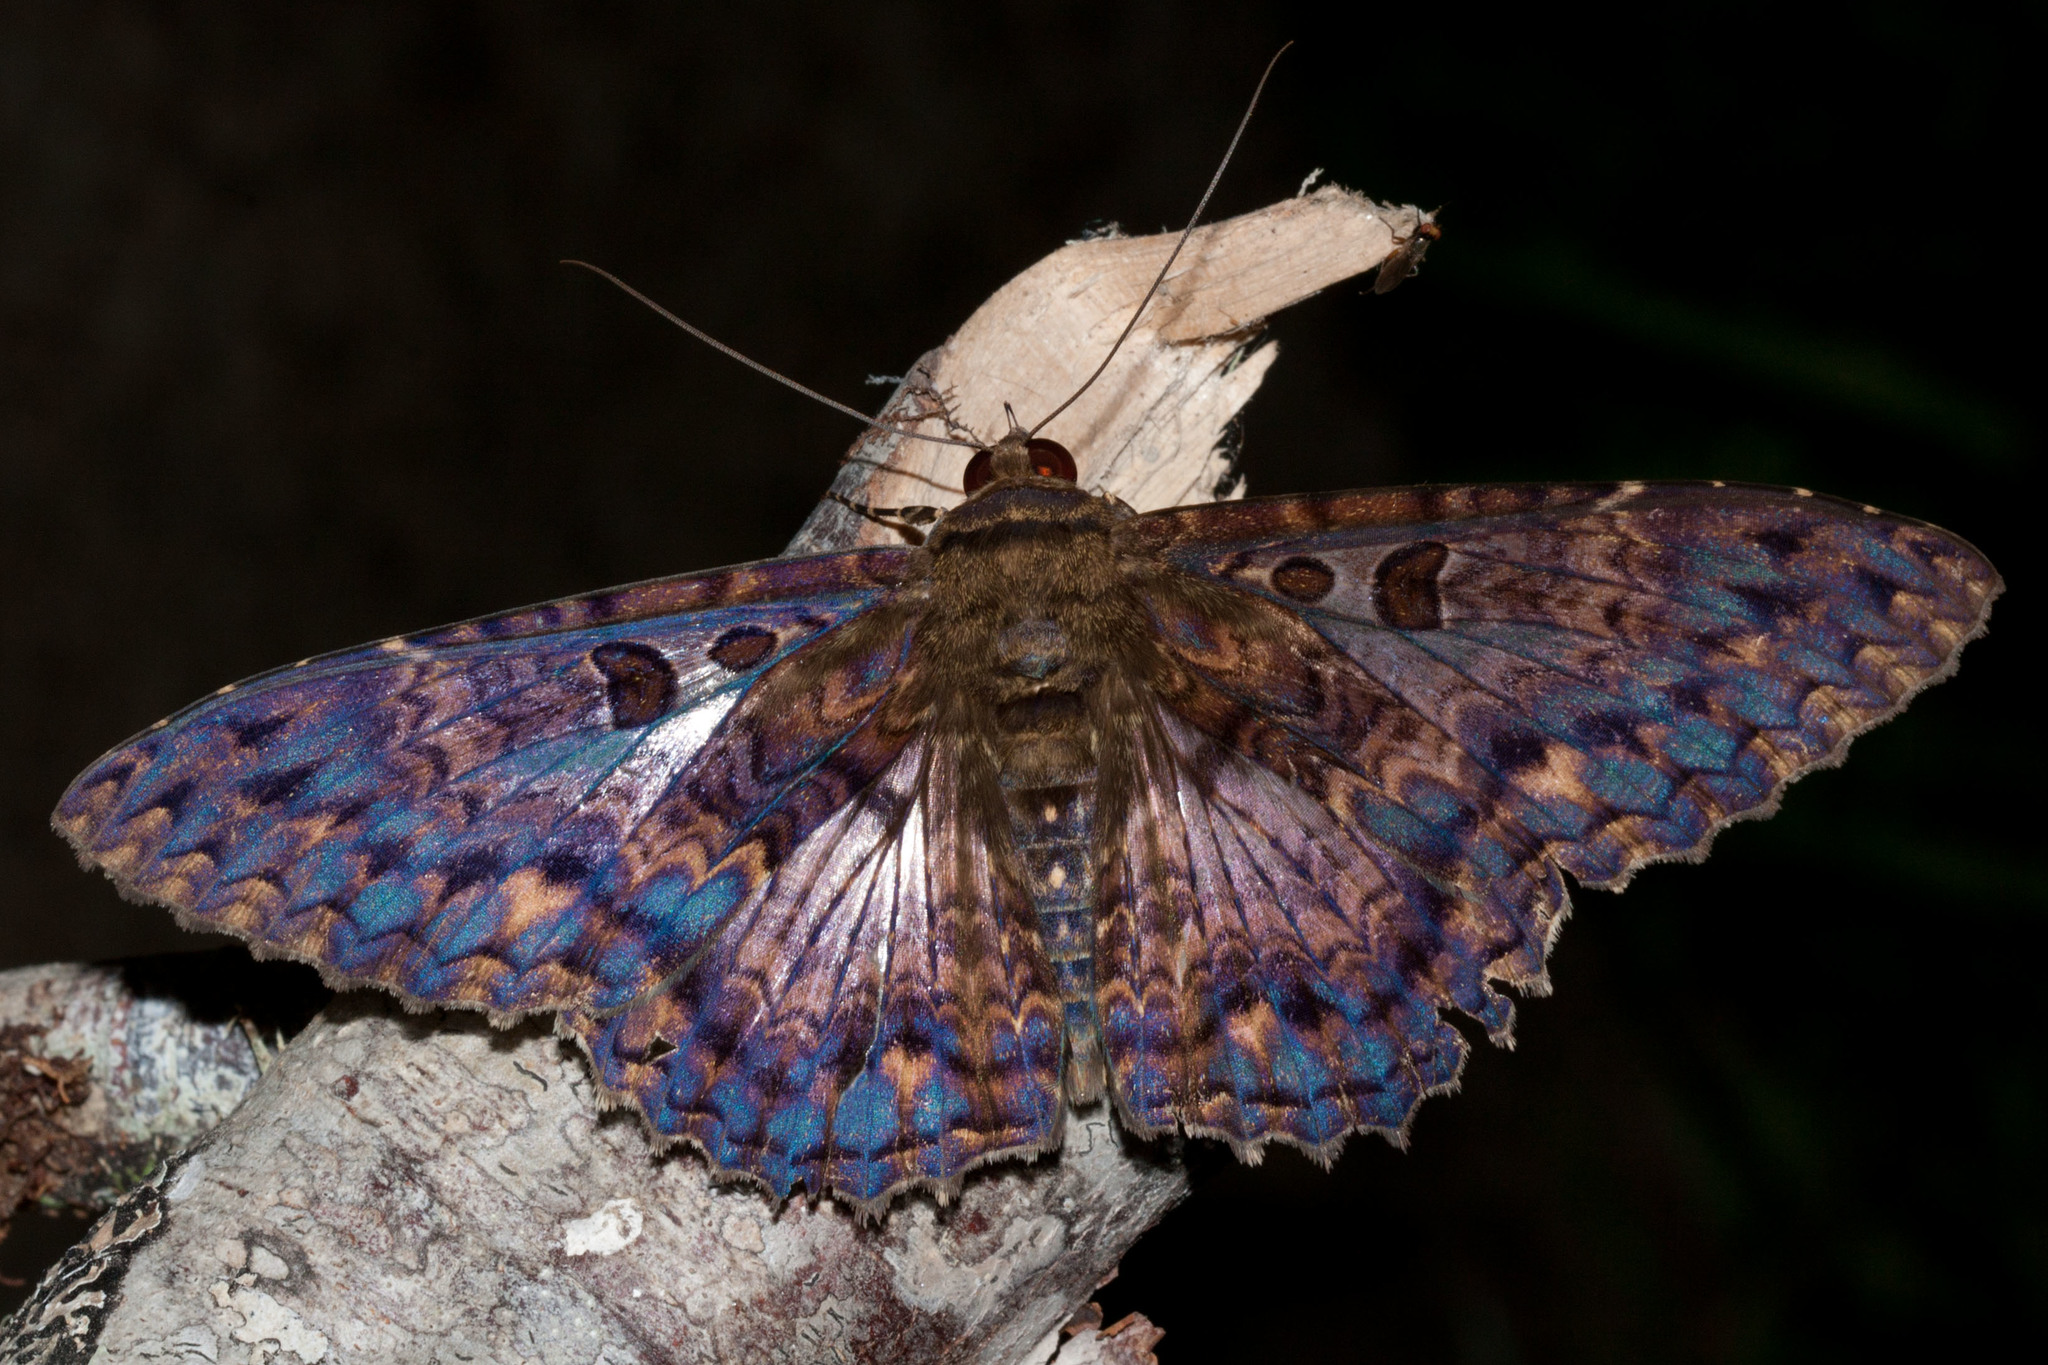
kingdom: Animalia
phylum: Arthropoda
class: Insecta
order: Lepidoptera
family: Erebidae
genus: Letis
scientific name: Letis iphianasse
